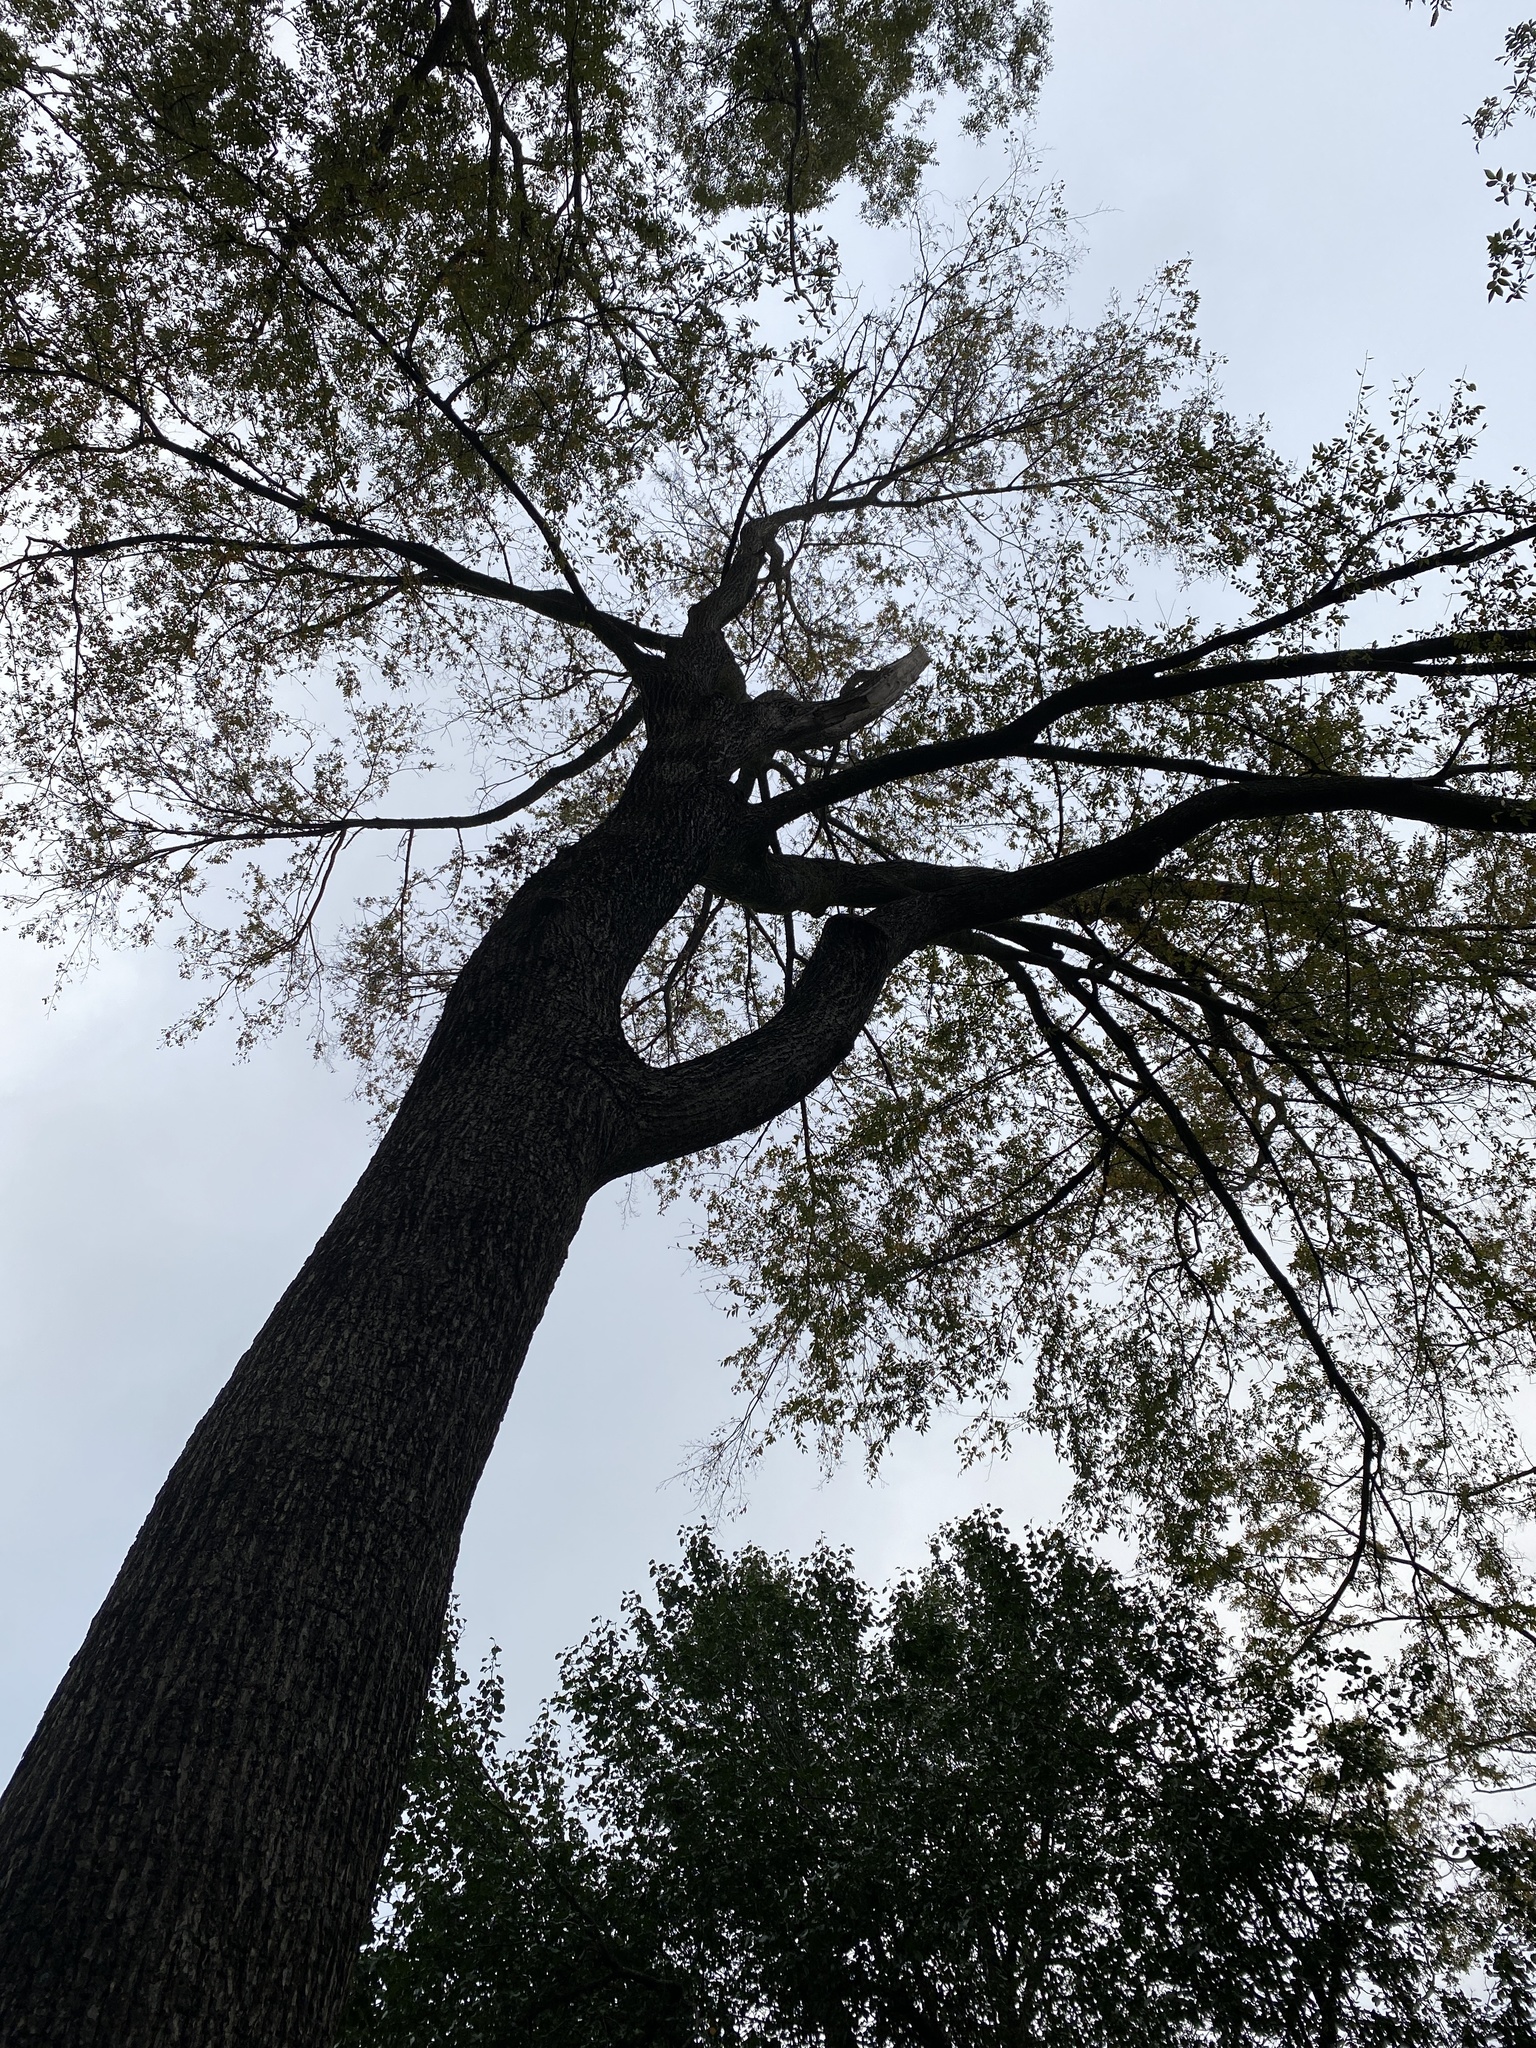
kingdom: Plantae
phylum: Tracheophyta
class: Magnoliopsida
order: Rosales
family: Ulmaceae
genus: Ulmus
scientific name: Ulmus crassifolia
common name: Basket elm
